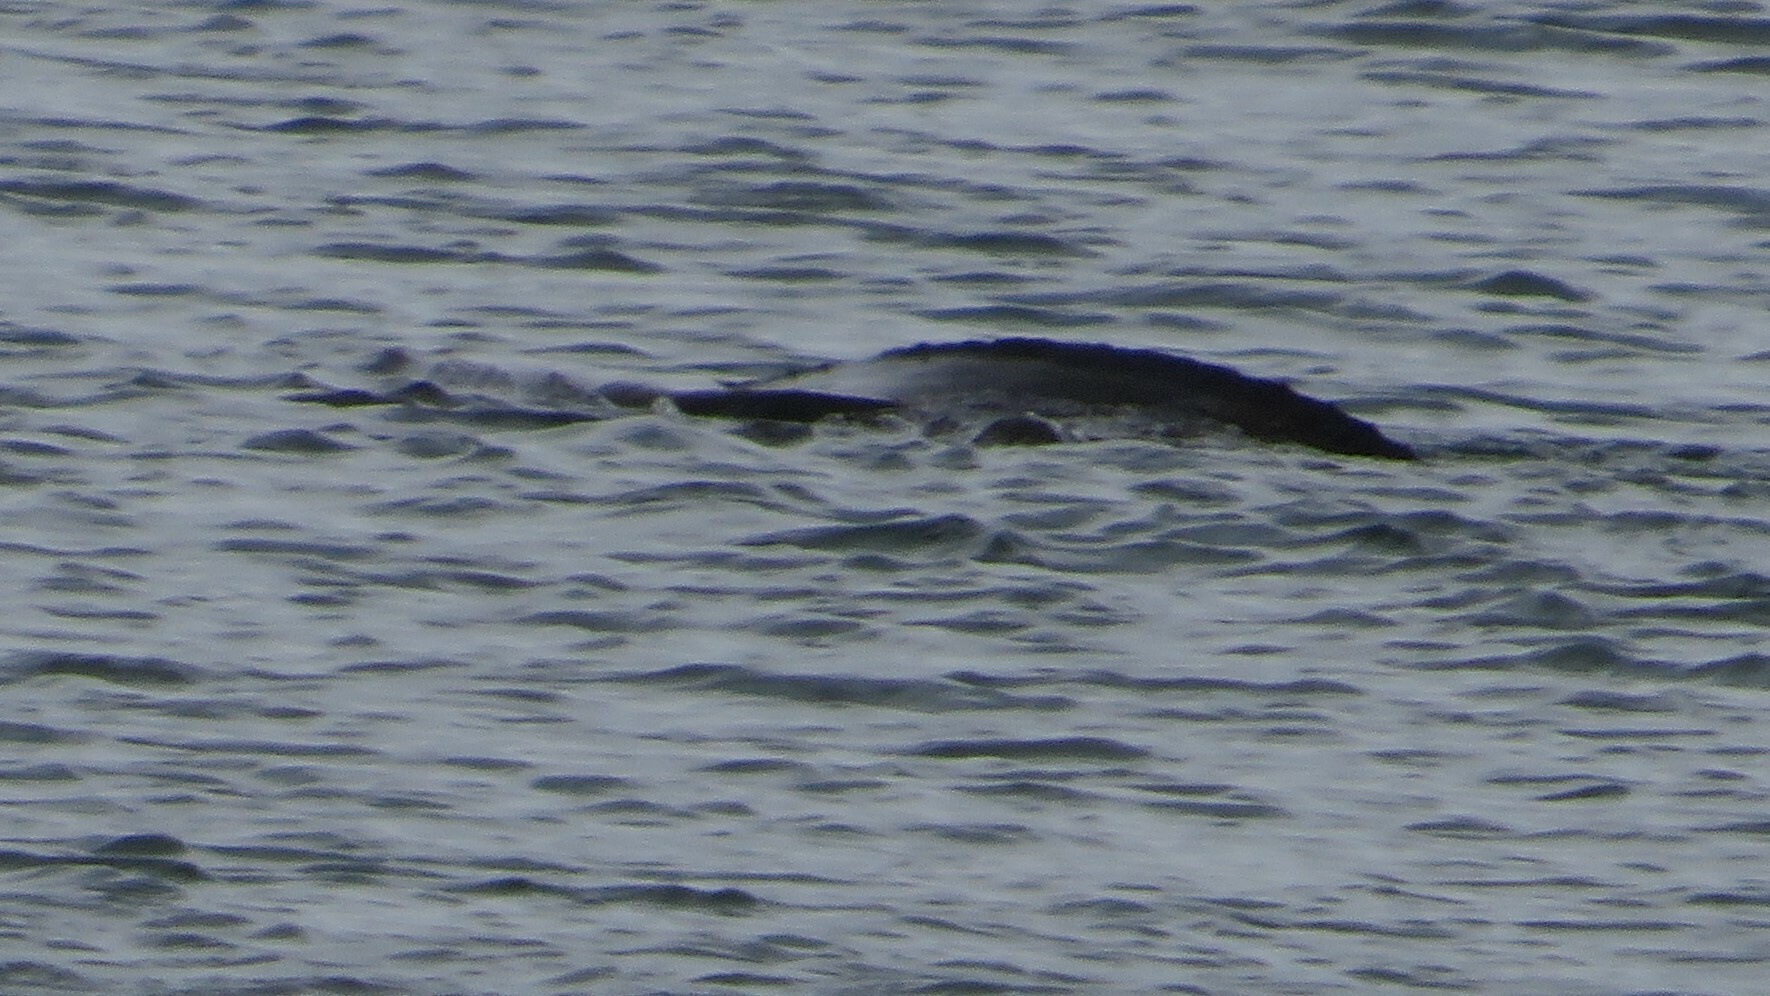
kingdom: Animalia
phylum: Chordata
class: Testudines
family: Dermochelyidae
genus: Dermochelys
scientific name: Dermochelys coriacea
